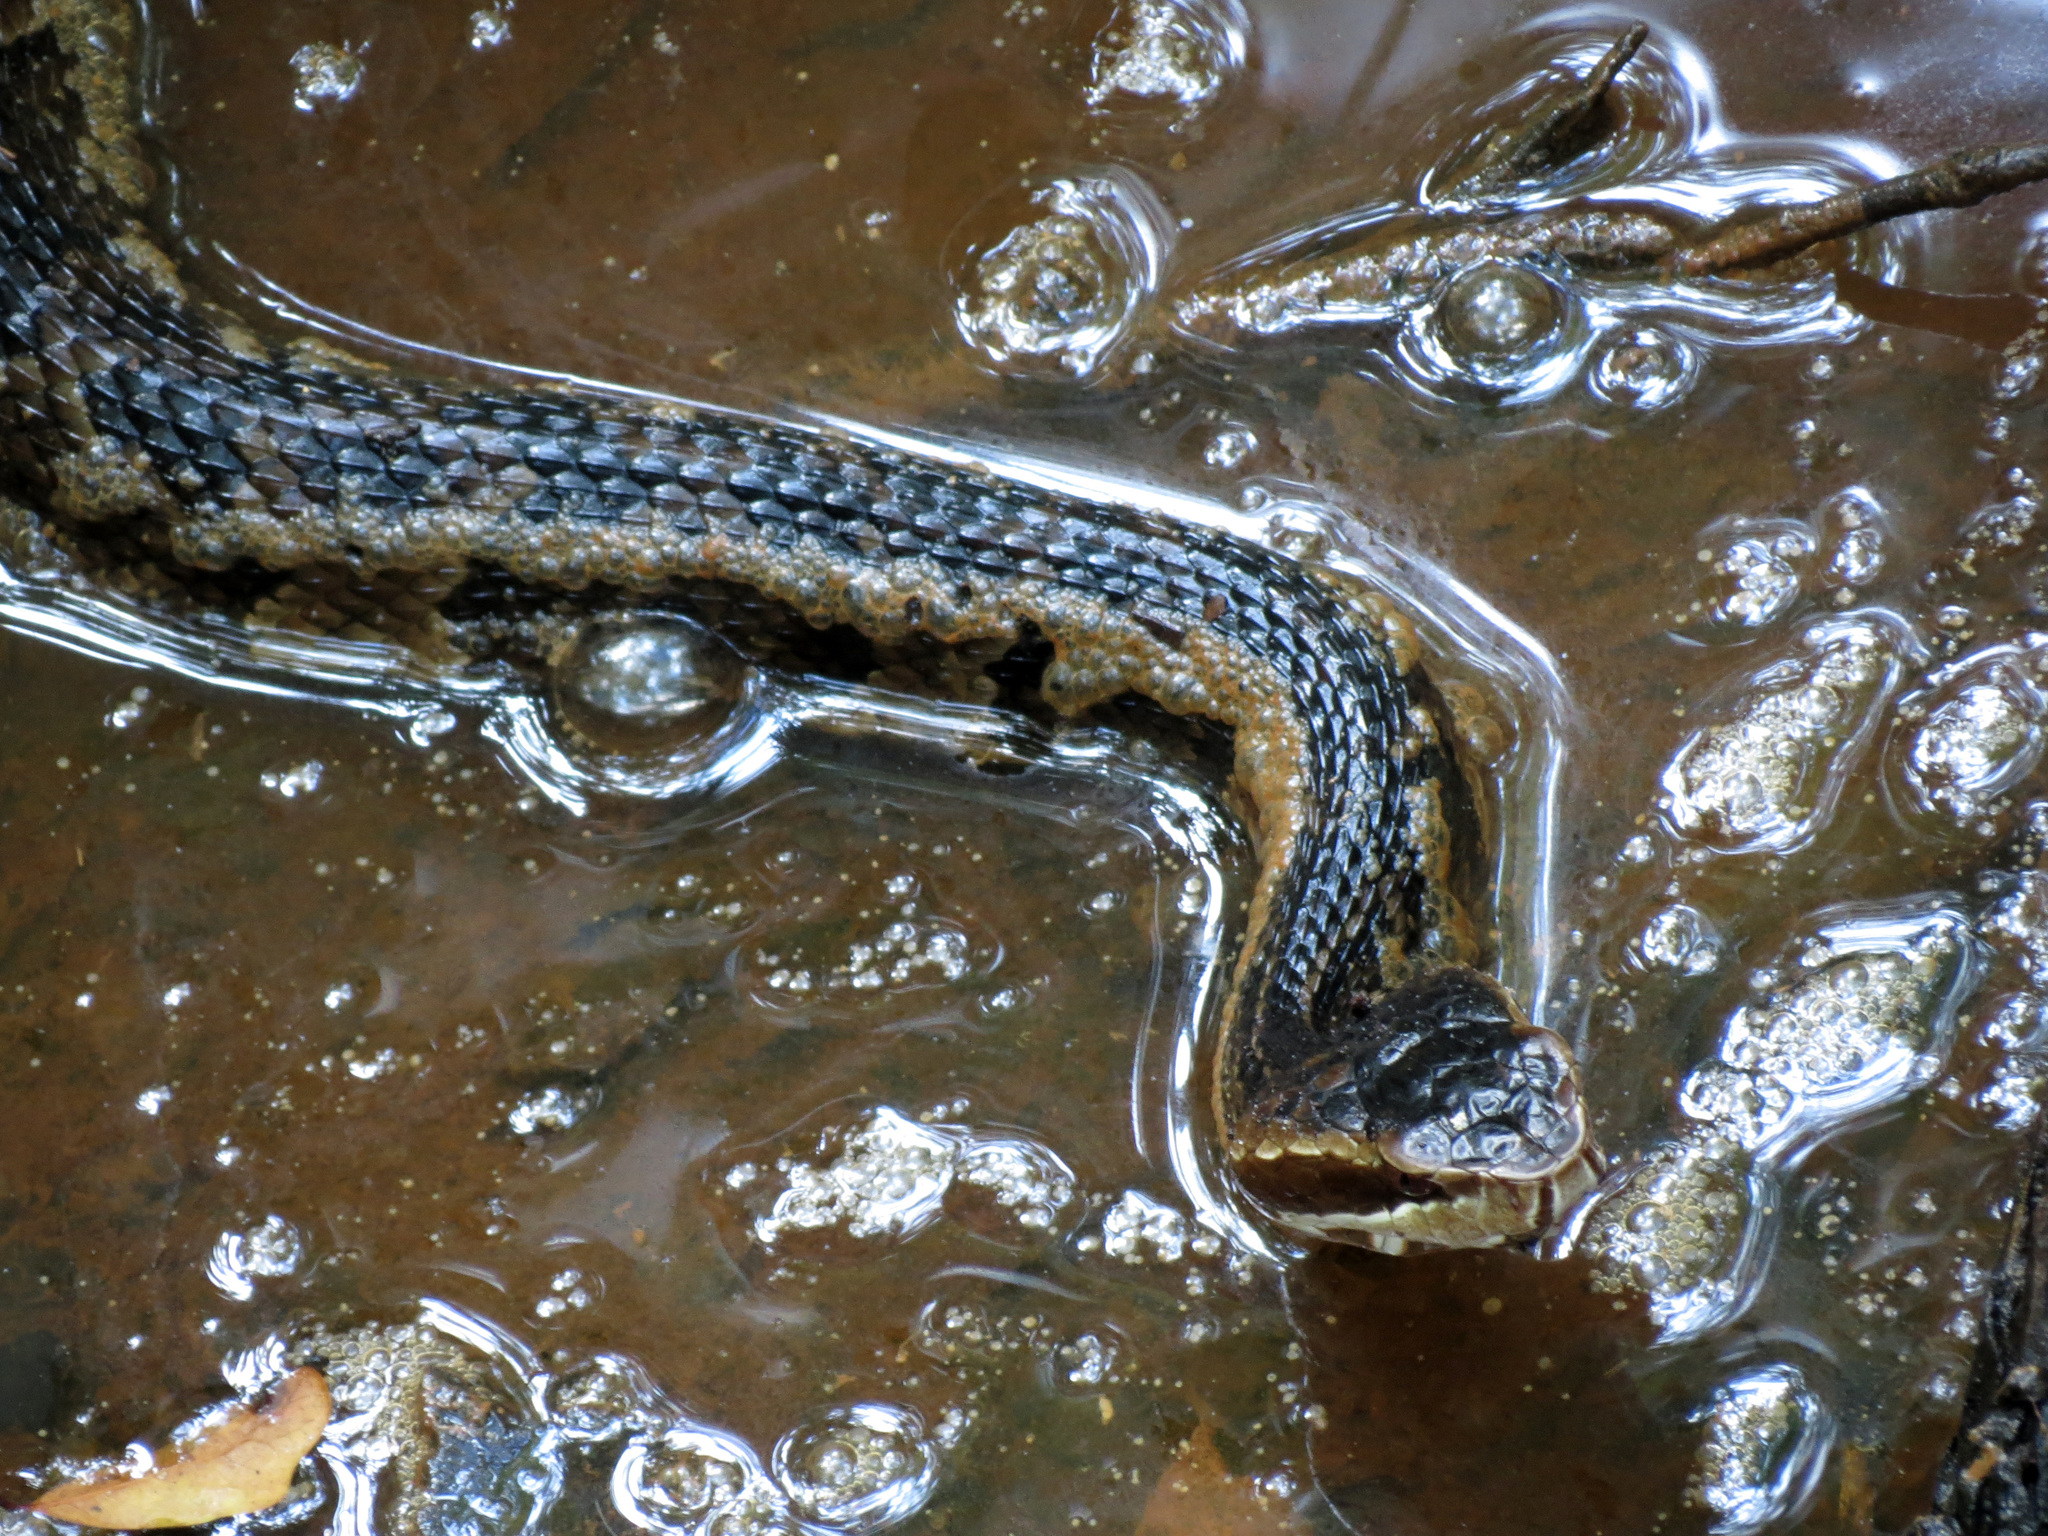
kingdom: Animalia
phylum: Chordata
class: Squamata
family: Viperidae
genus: Agkistrodon
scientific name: Agkistrodon conanti
